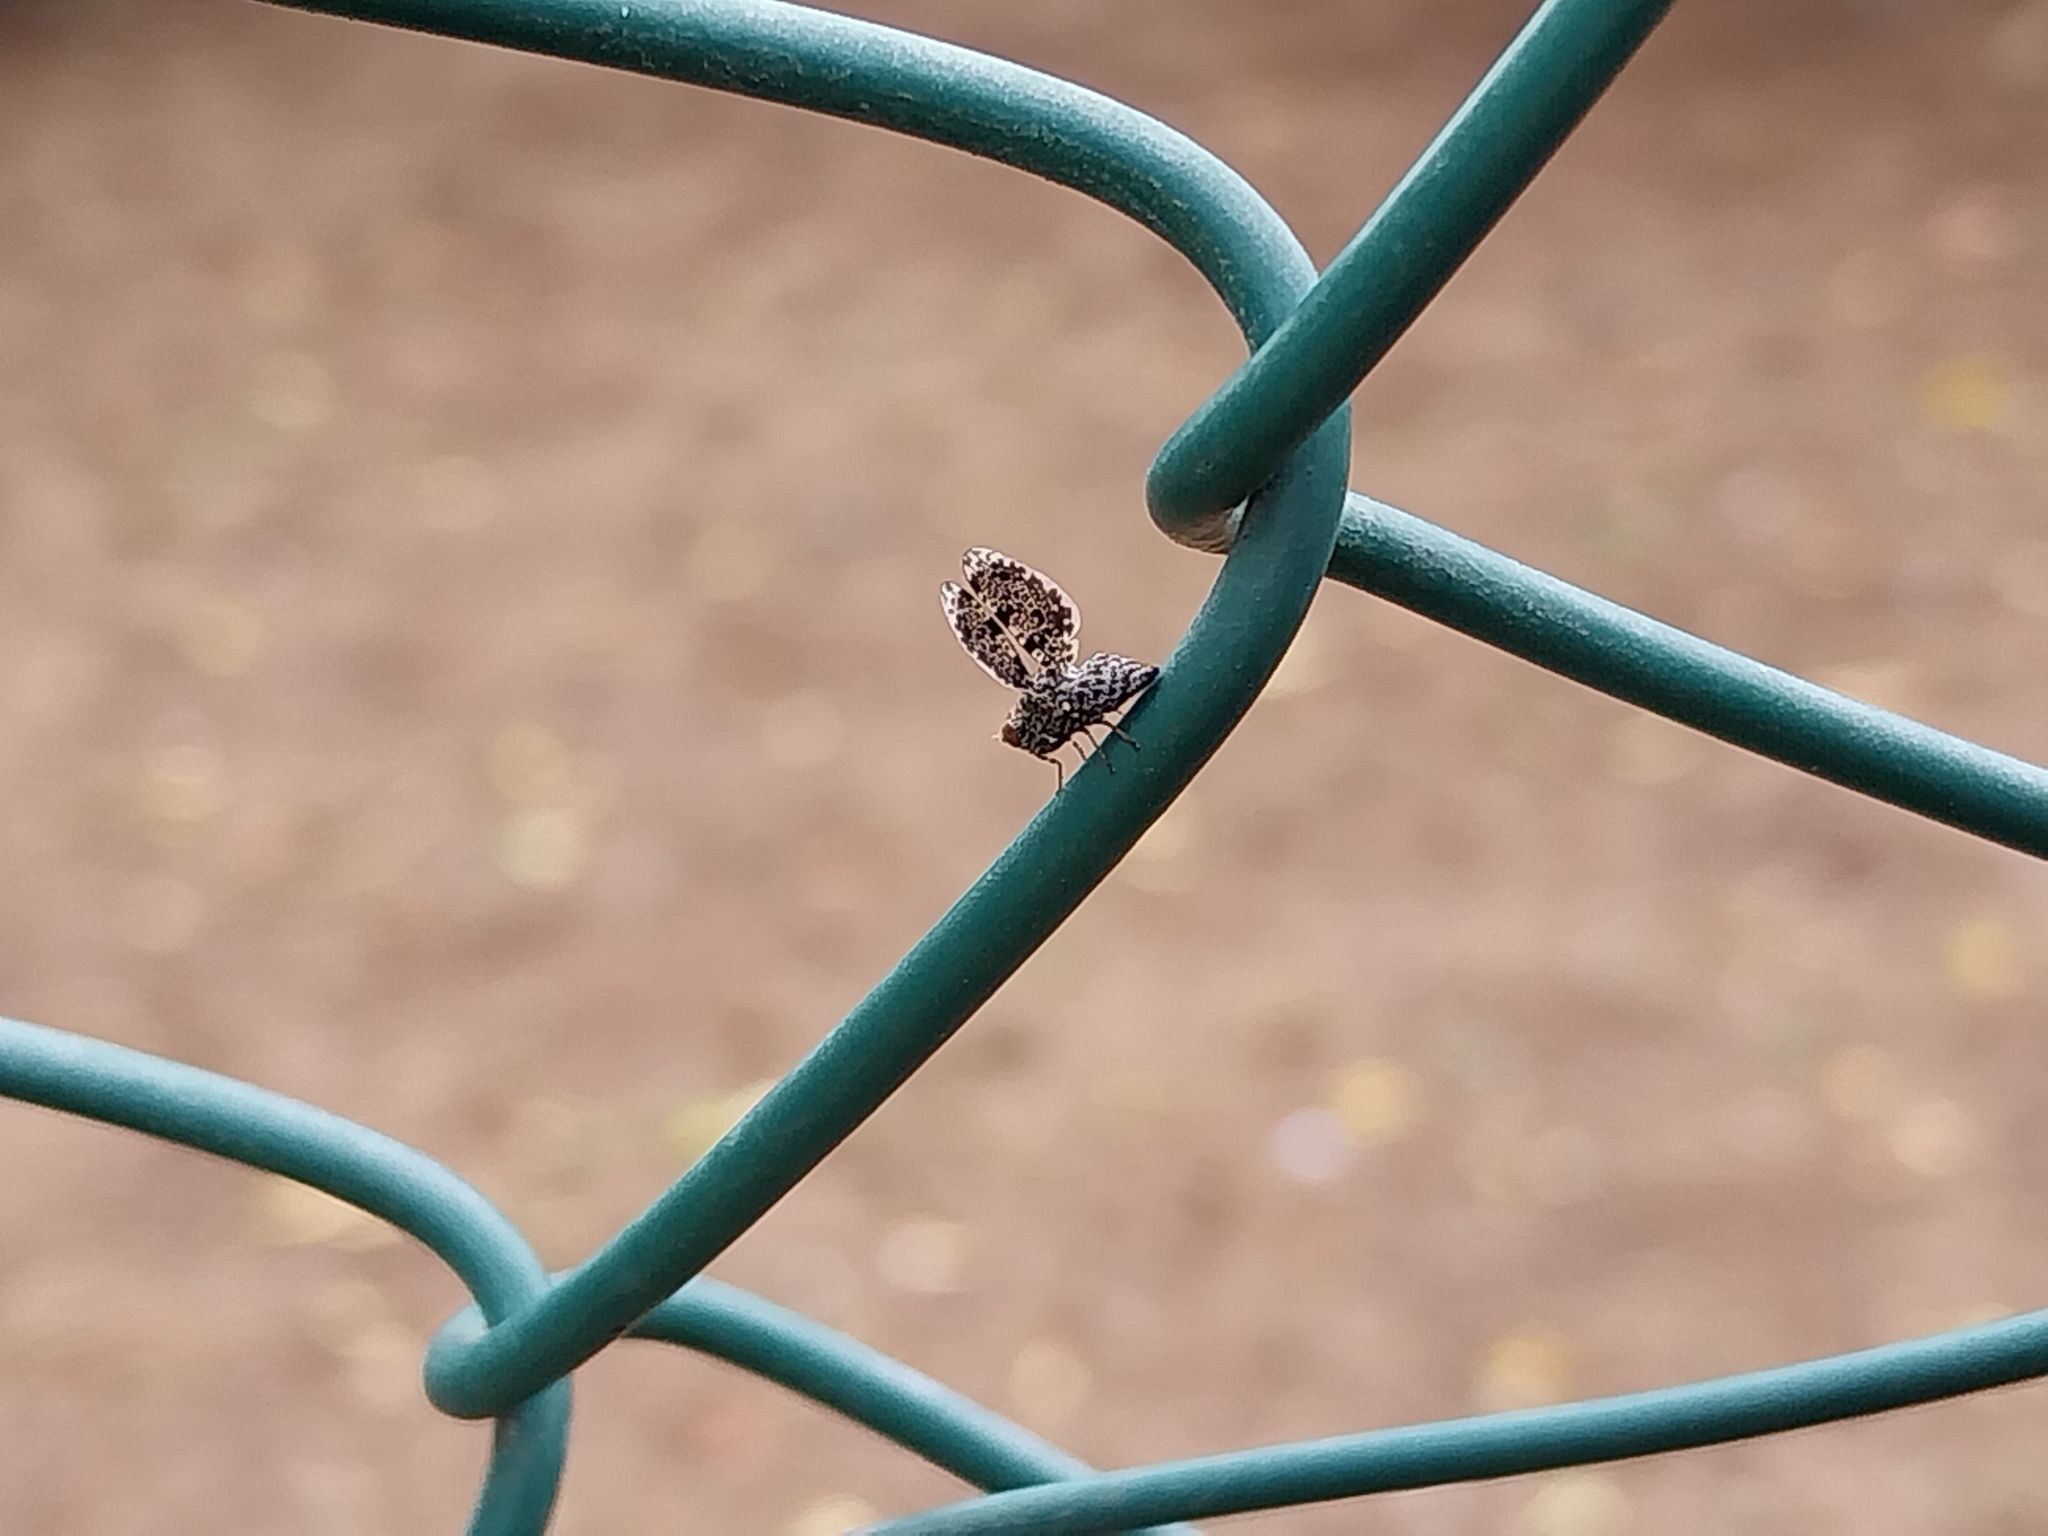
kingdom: Animalia
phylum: Arthropoda
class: Insecta
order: Diptera
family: Ulidiidae
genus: Callopistromyia
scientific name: Callopistromyia annulipes
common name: Peacock fly
